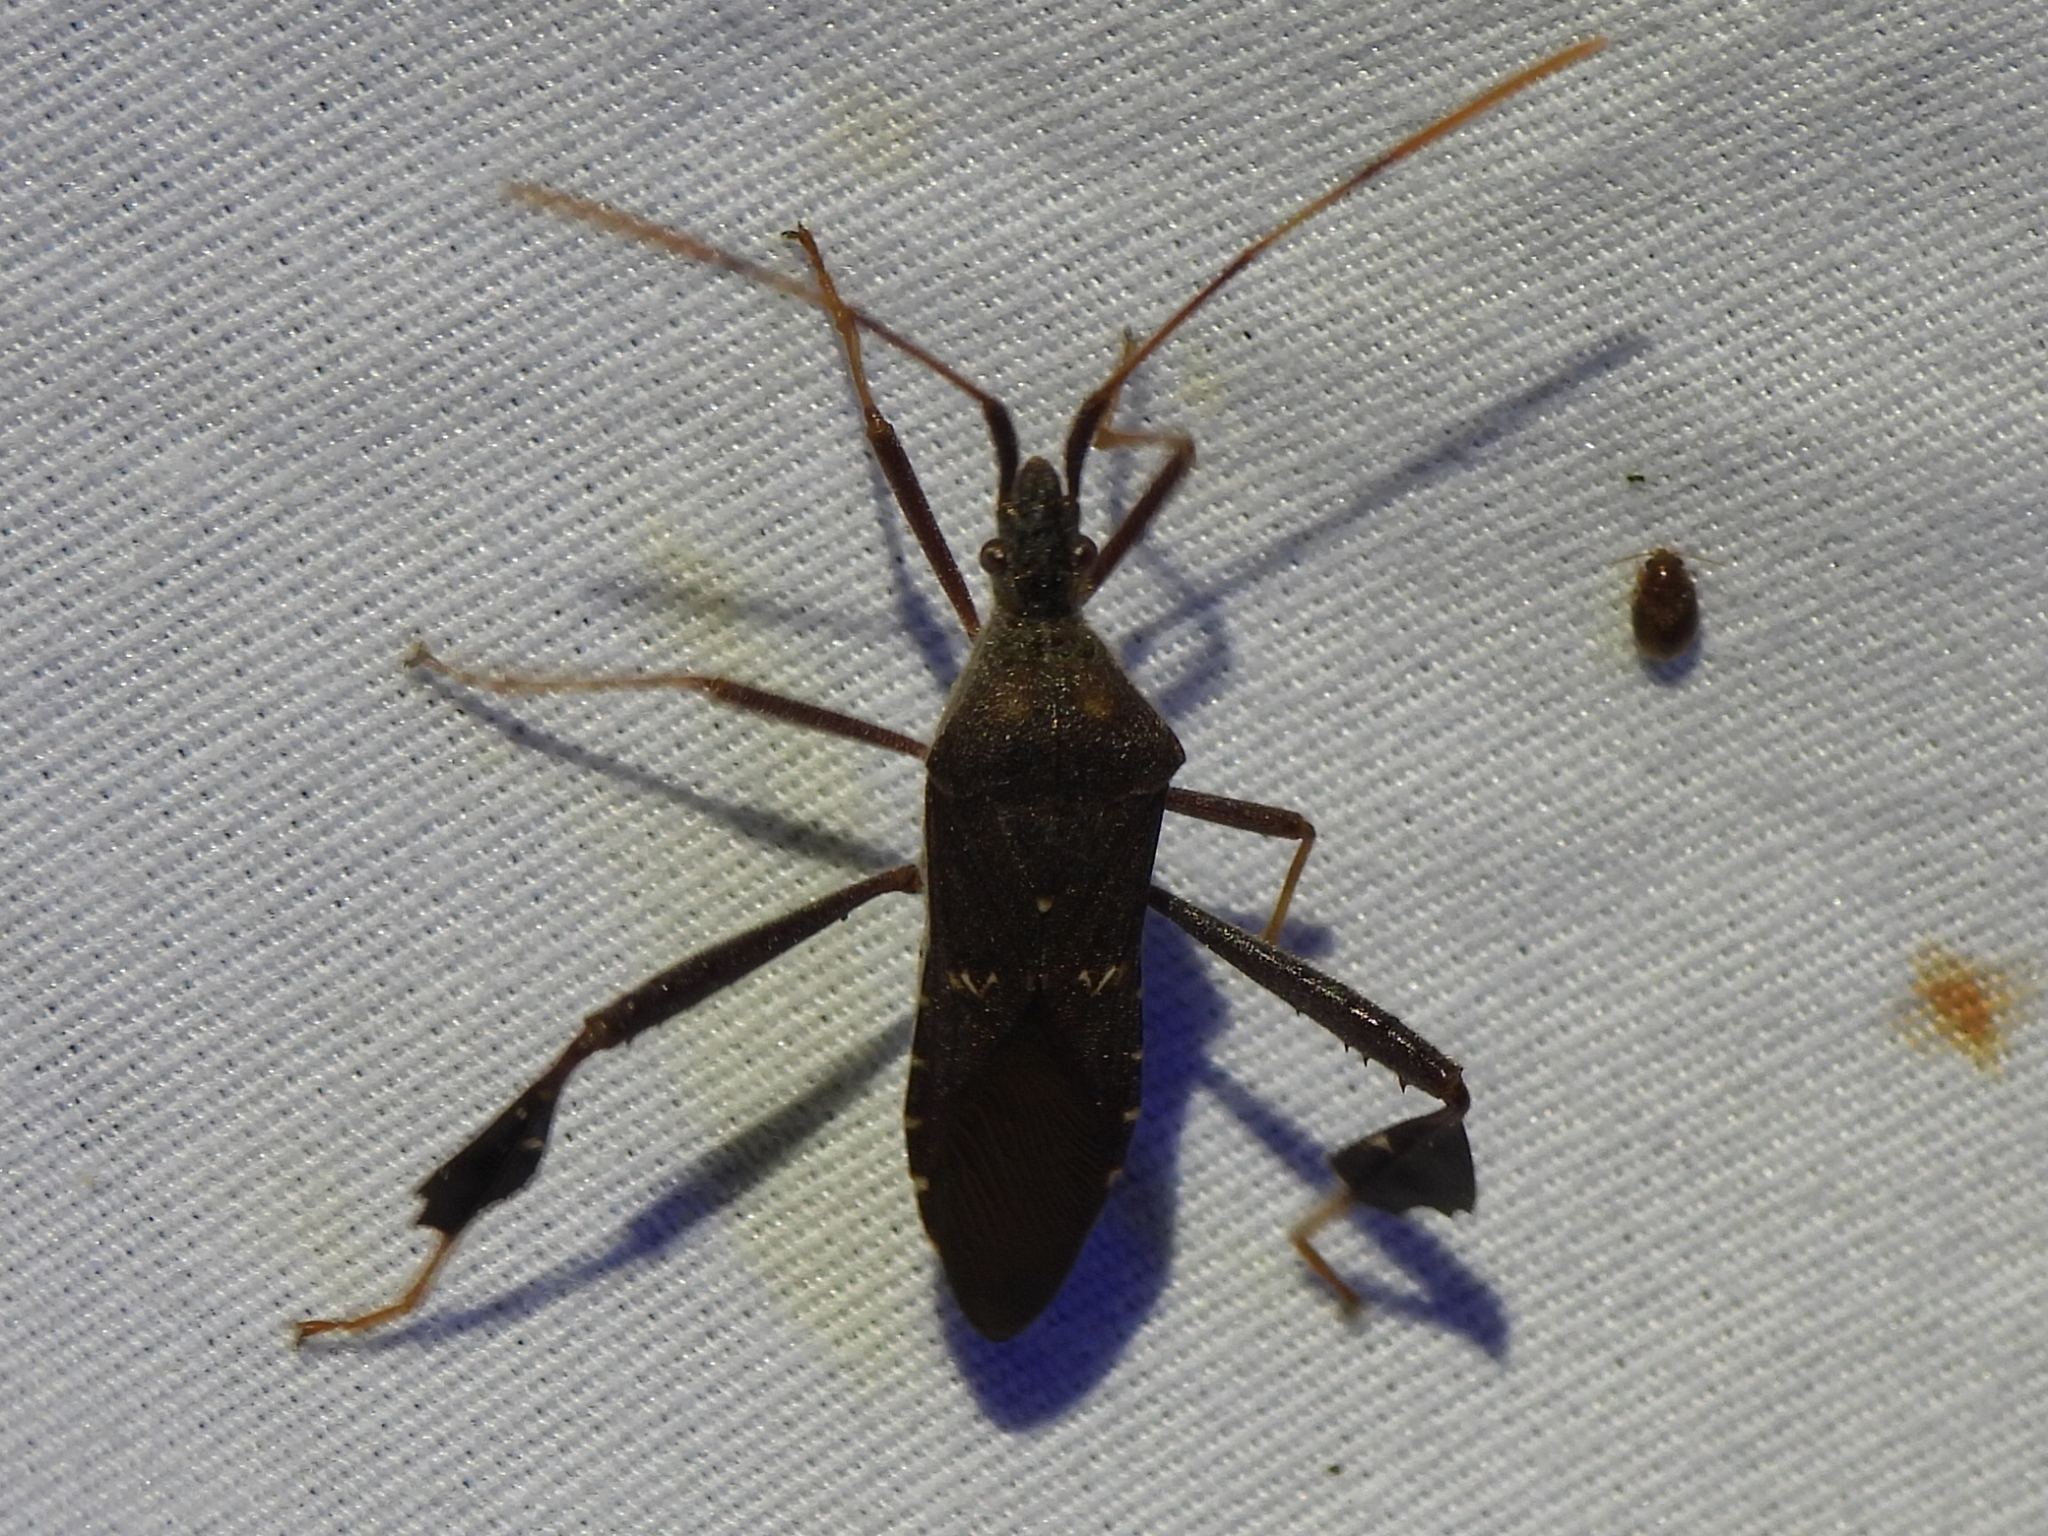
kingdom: Animalia
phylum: Arthropoda
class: Insecta
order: Hemiptera
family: Coreidae
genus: Leptoglossus
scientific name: Leptoglossus oppositus
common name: Northern leaf-footed bug
